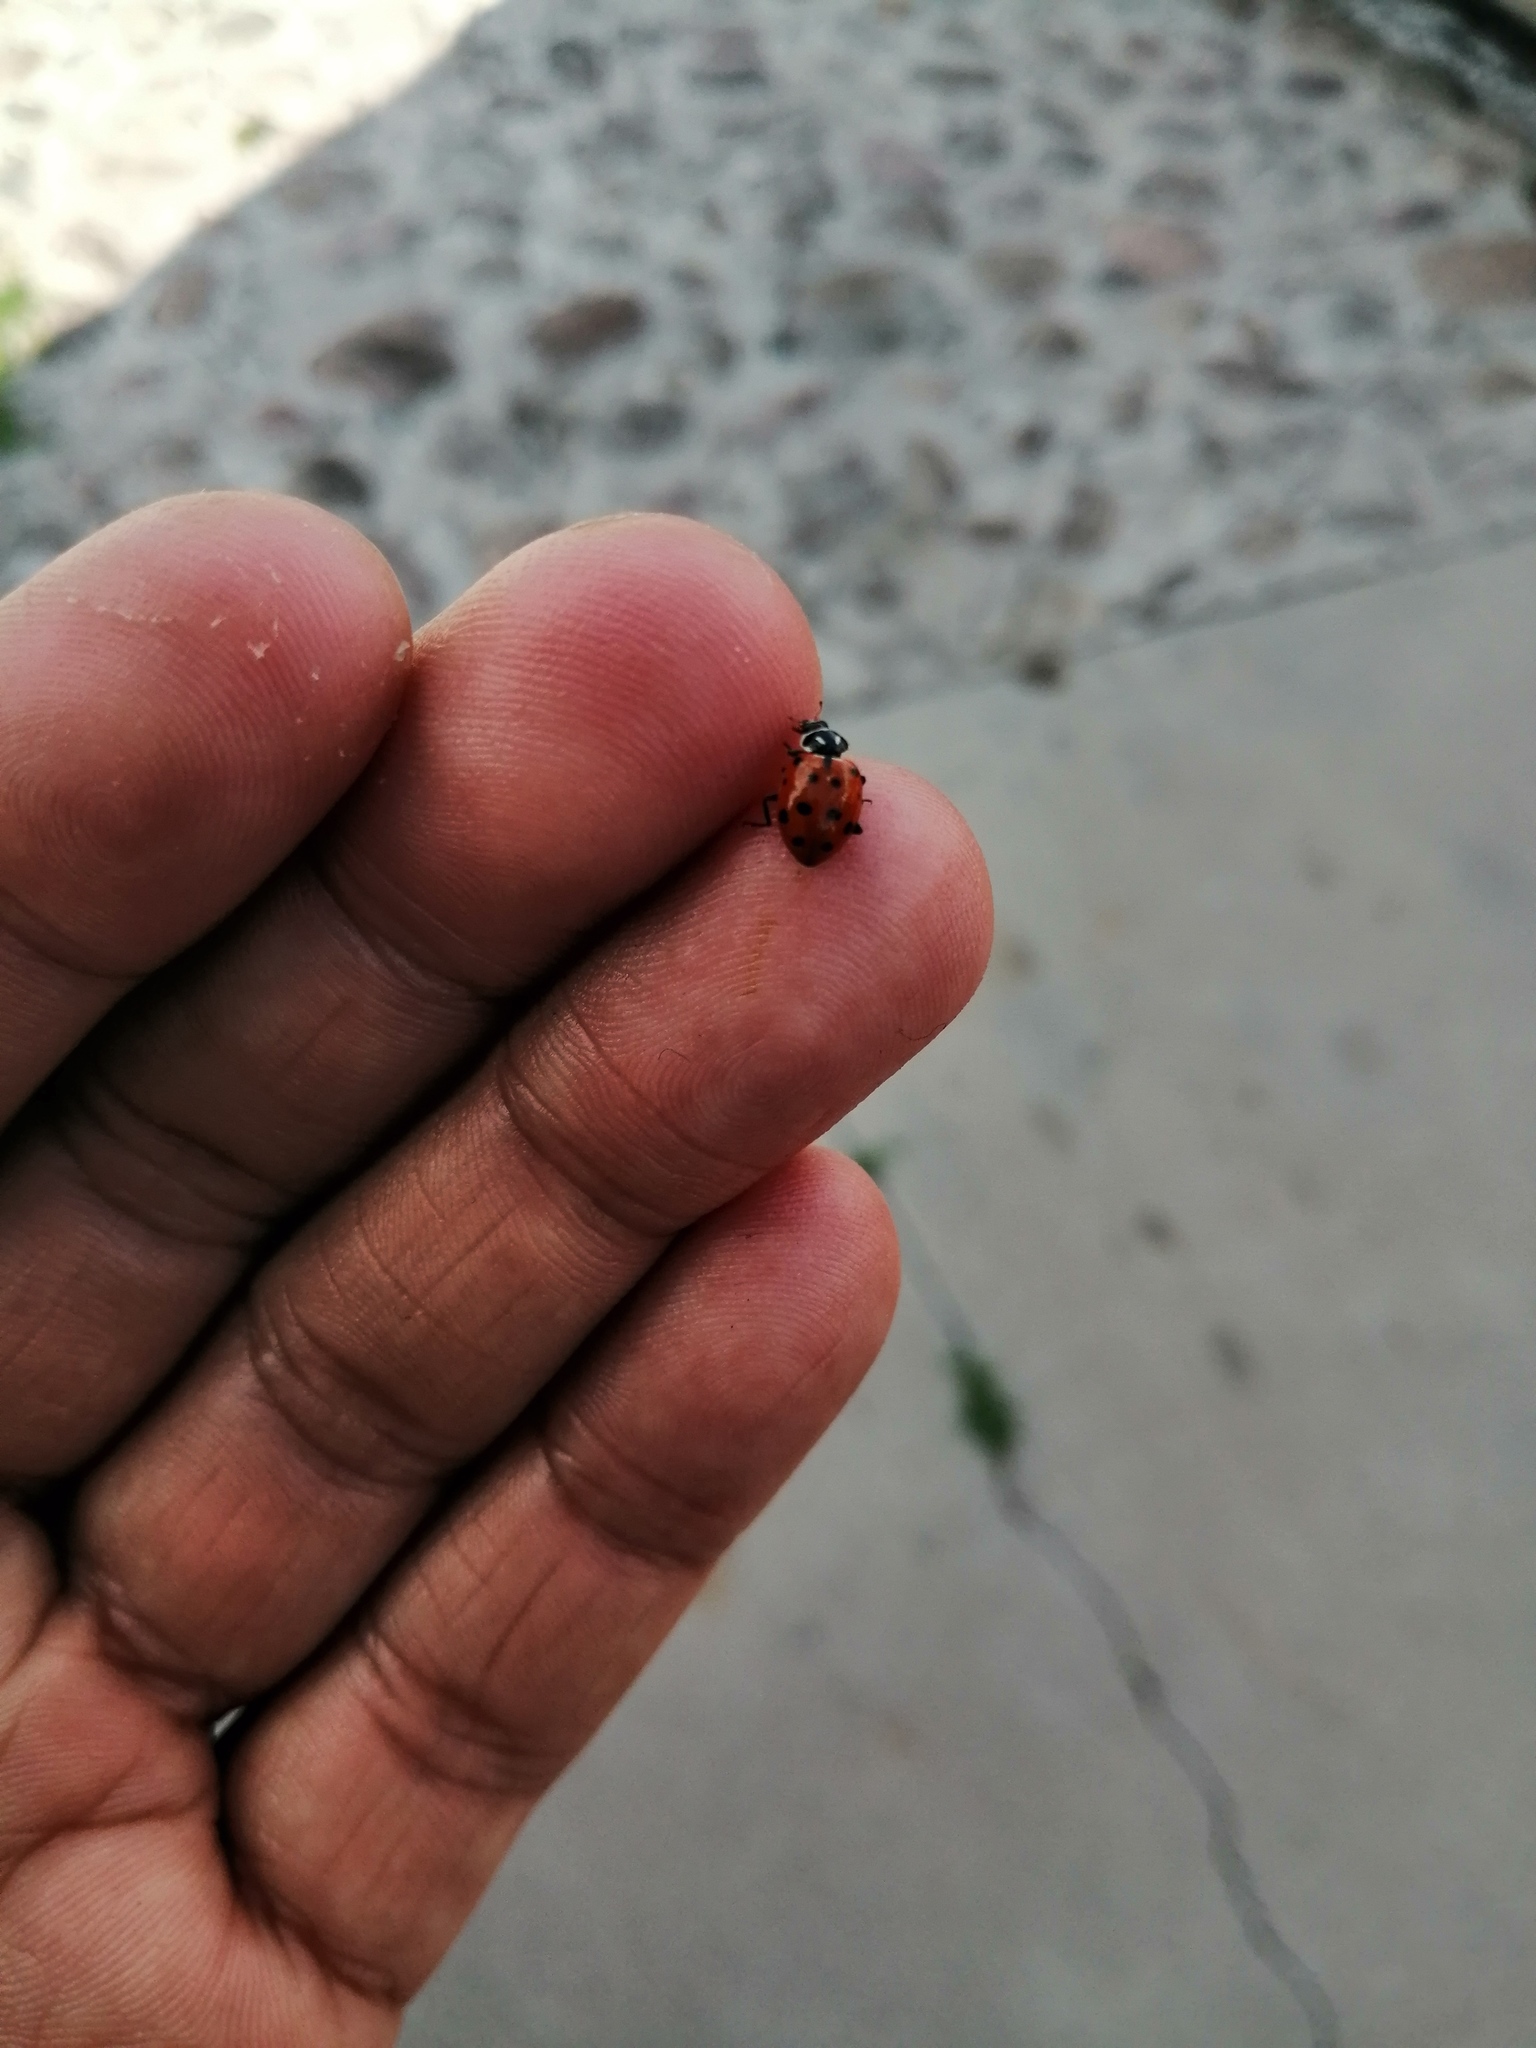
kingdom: Animalia
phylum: Arthropoda
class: Insecta
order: Coleoptera
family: Coccinellidae
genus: Hippodamia
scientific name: Hippodamia convergens
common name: Convergent lady beetle
